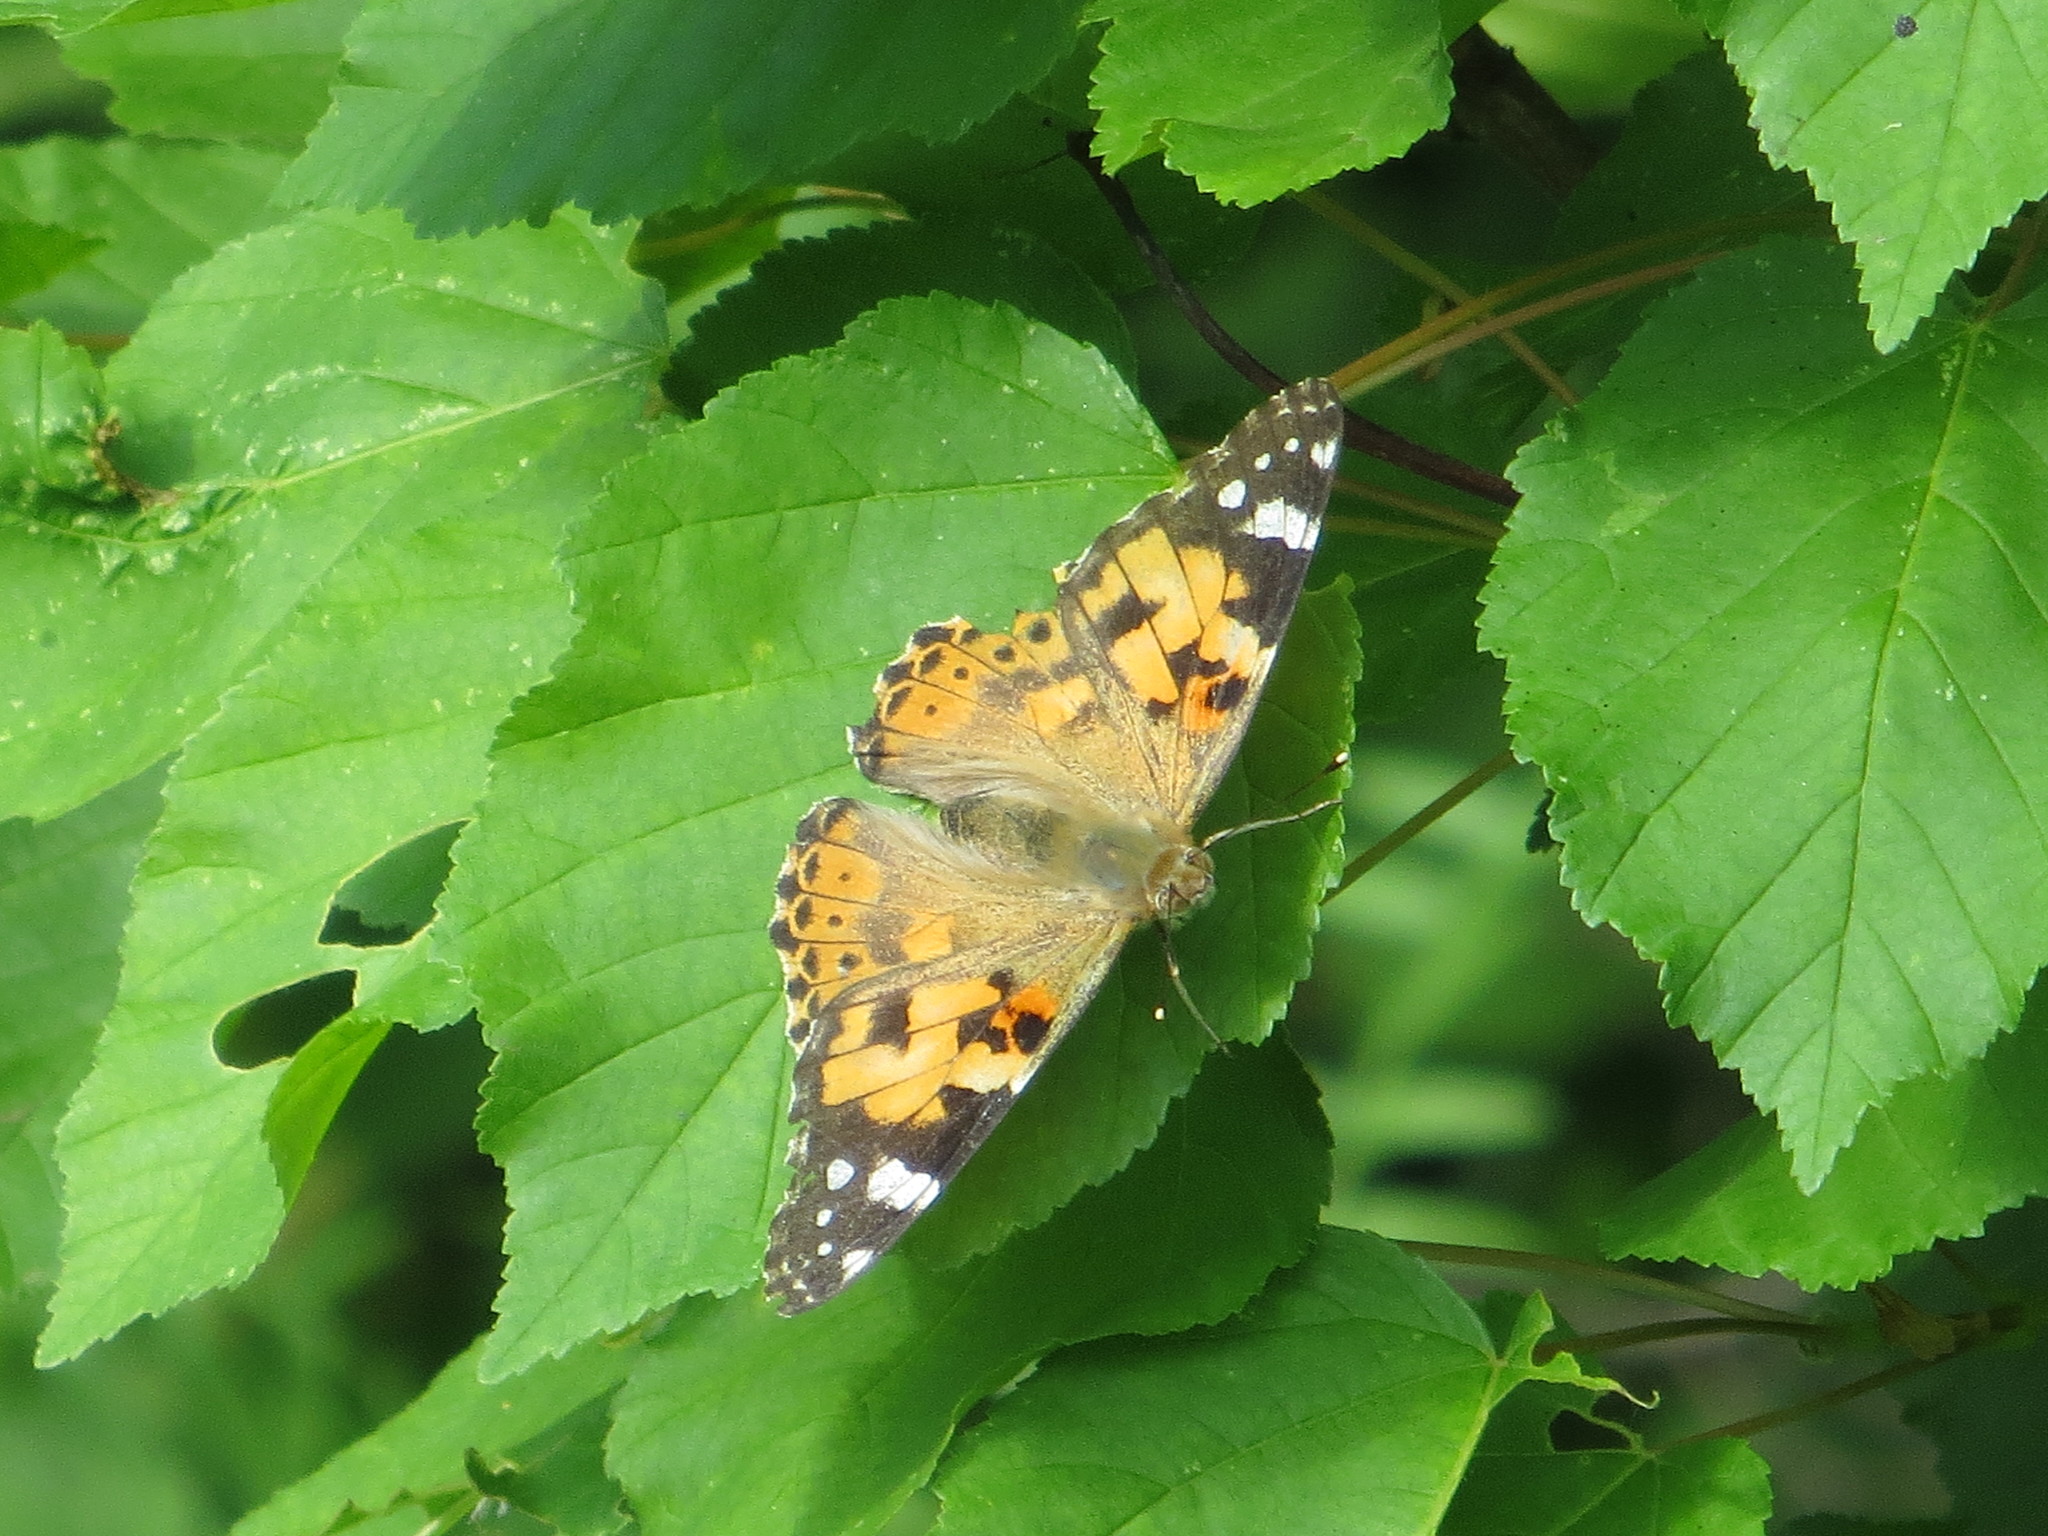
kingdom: Animalia
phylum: Arthropoda
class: Insecta
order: Lepidoptera
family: Nymphalidae
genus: Vanessa
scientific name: Vanessa cardui
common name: Painted lady
